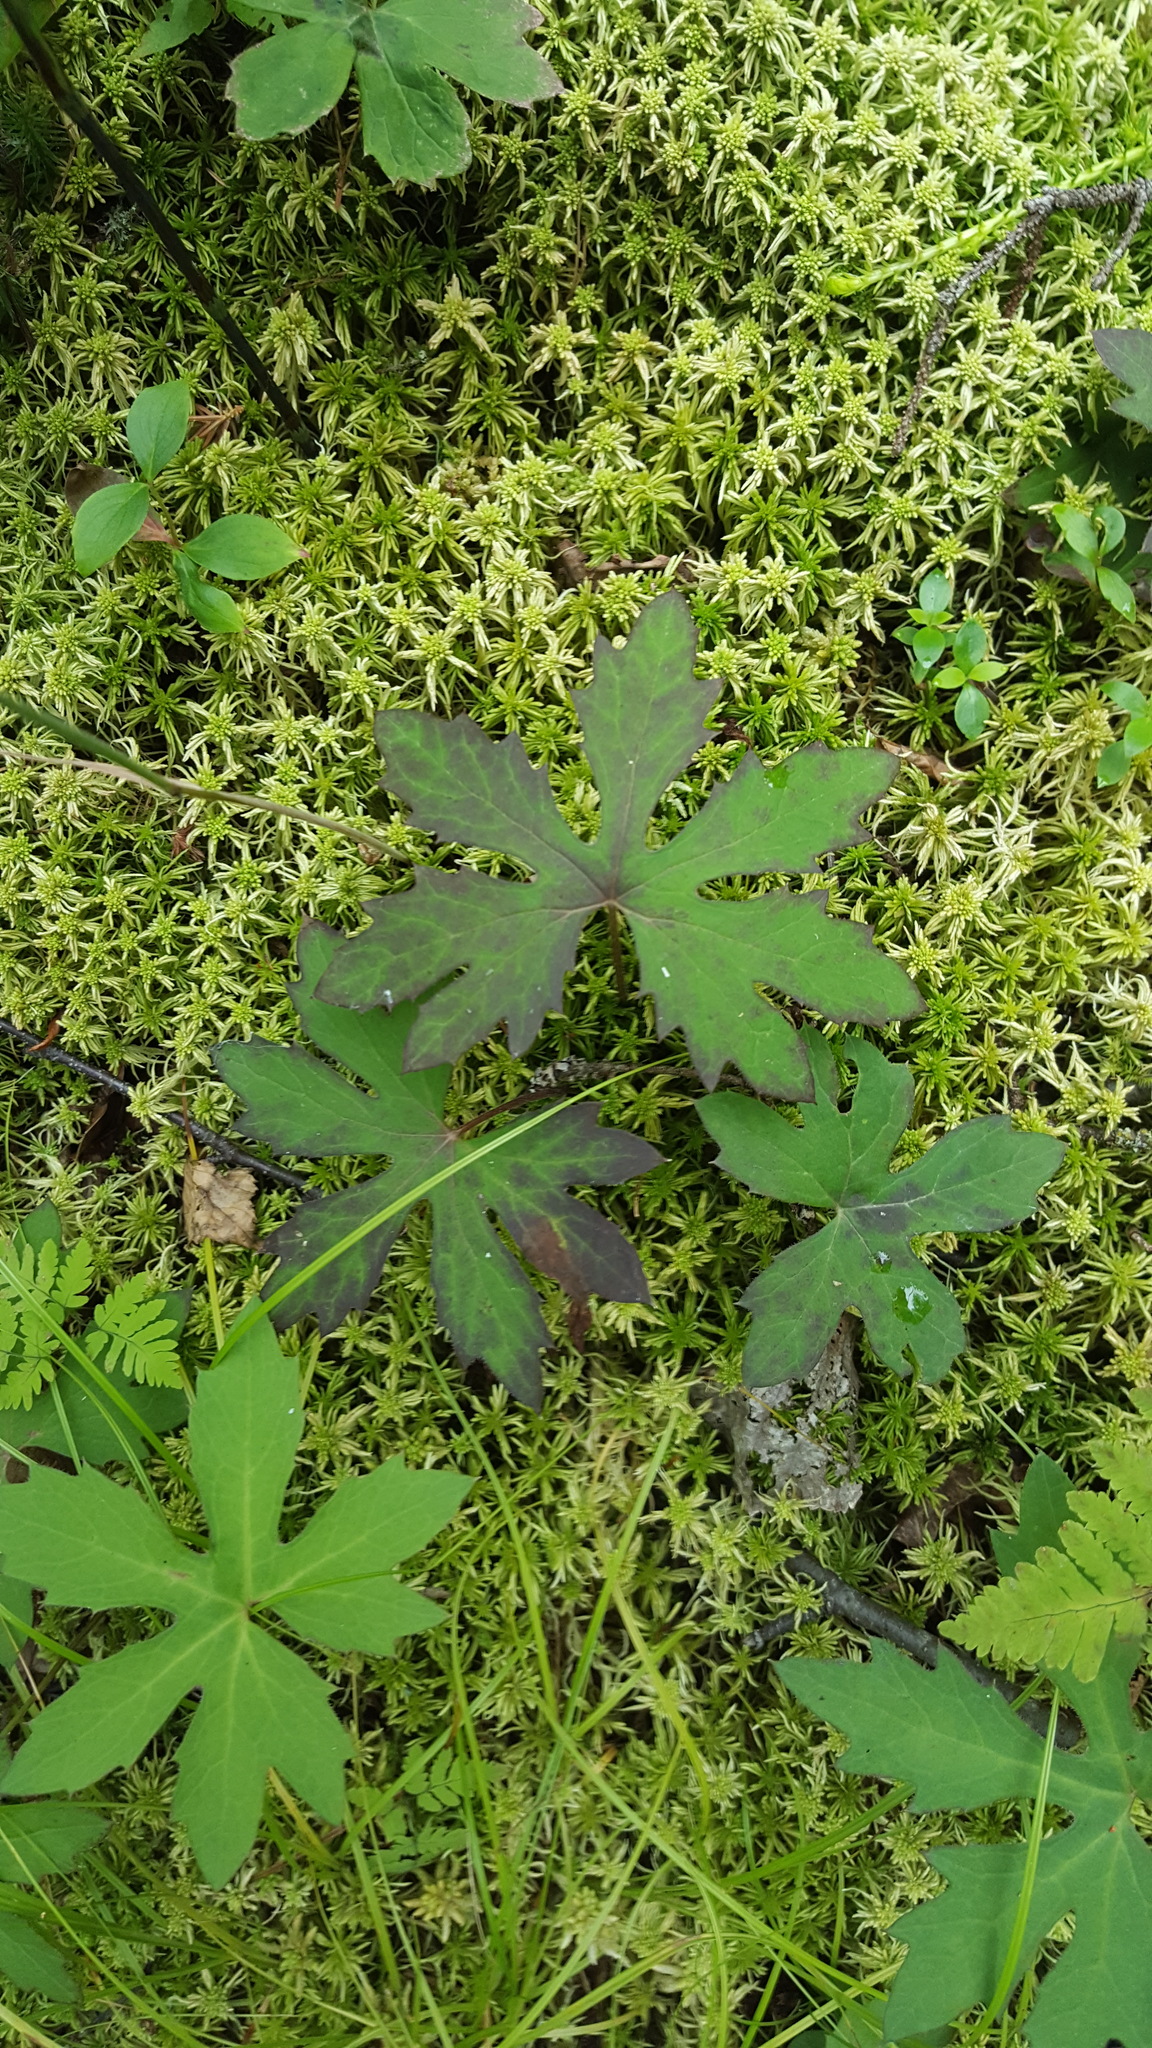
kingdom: Plantae
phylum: Tracheophyta
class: Magnoliopsida
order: Asterales
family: Asteraceae
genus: Petasites
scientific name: Petasites frigidus
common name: Arctic butterbur
